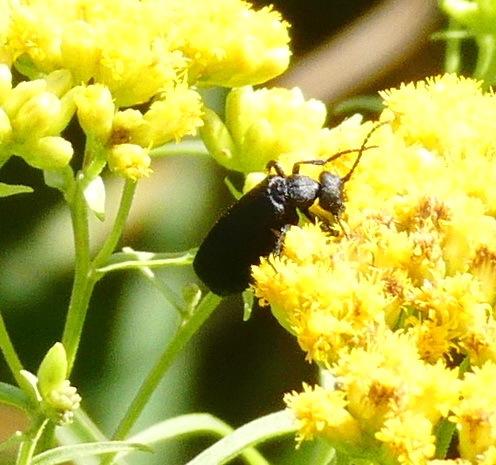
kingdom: Animalia
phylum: Arthropoda
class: Insecta
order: Coleoptera
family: Meloidae
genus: Epicauta
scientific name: Epicauta pensylvanica
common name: Black blister beetle
